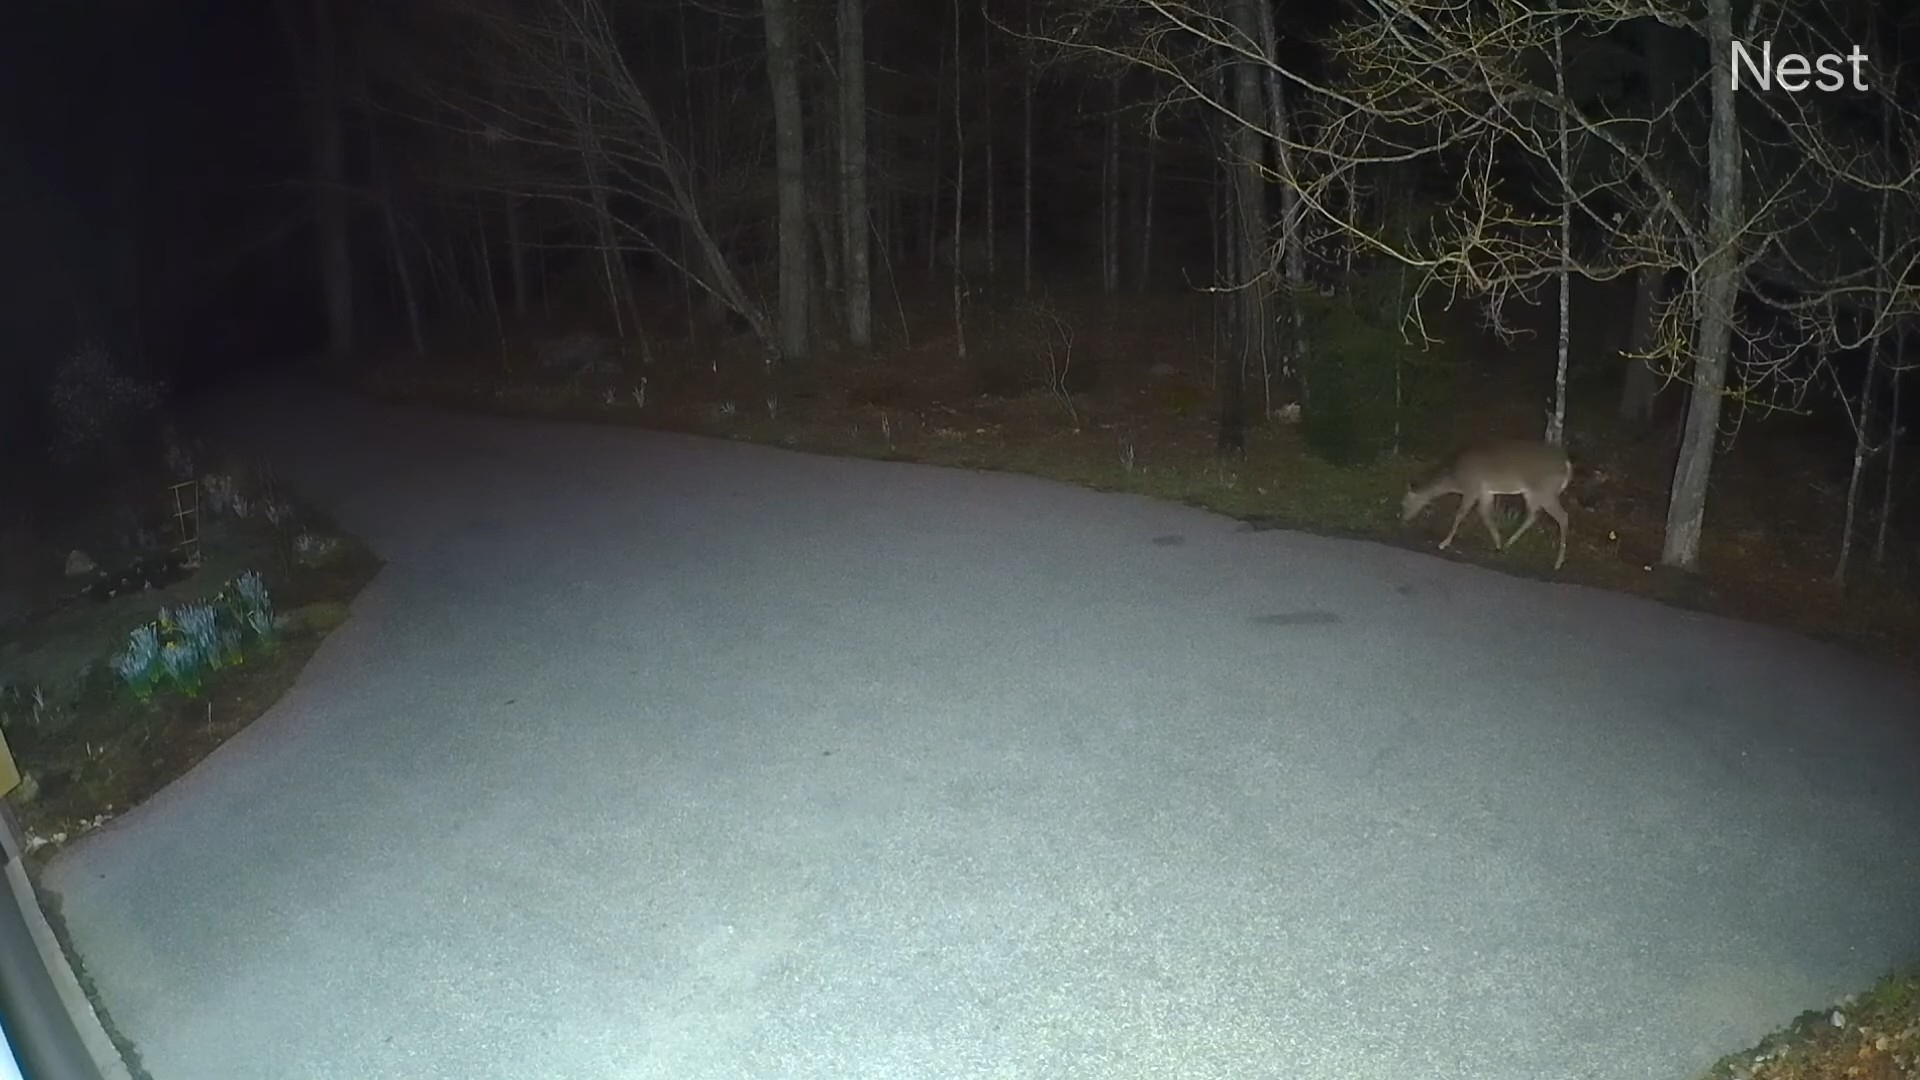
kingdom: Animalia
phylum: Chordata
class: Mammalia
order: Artiodactyla
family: Cervidae
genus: Odocoileus
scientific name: Odocoileus virginianus
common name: White-tailed deer
